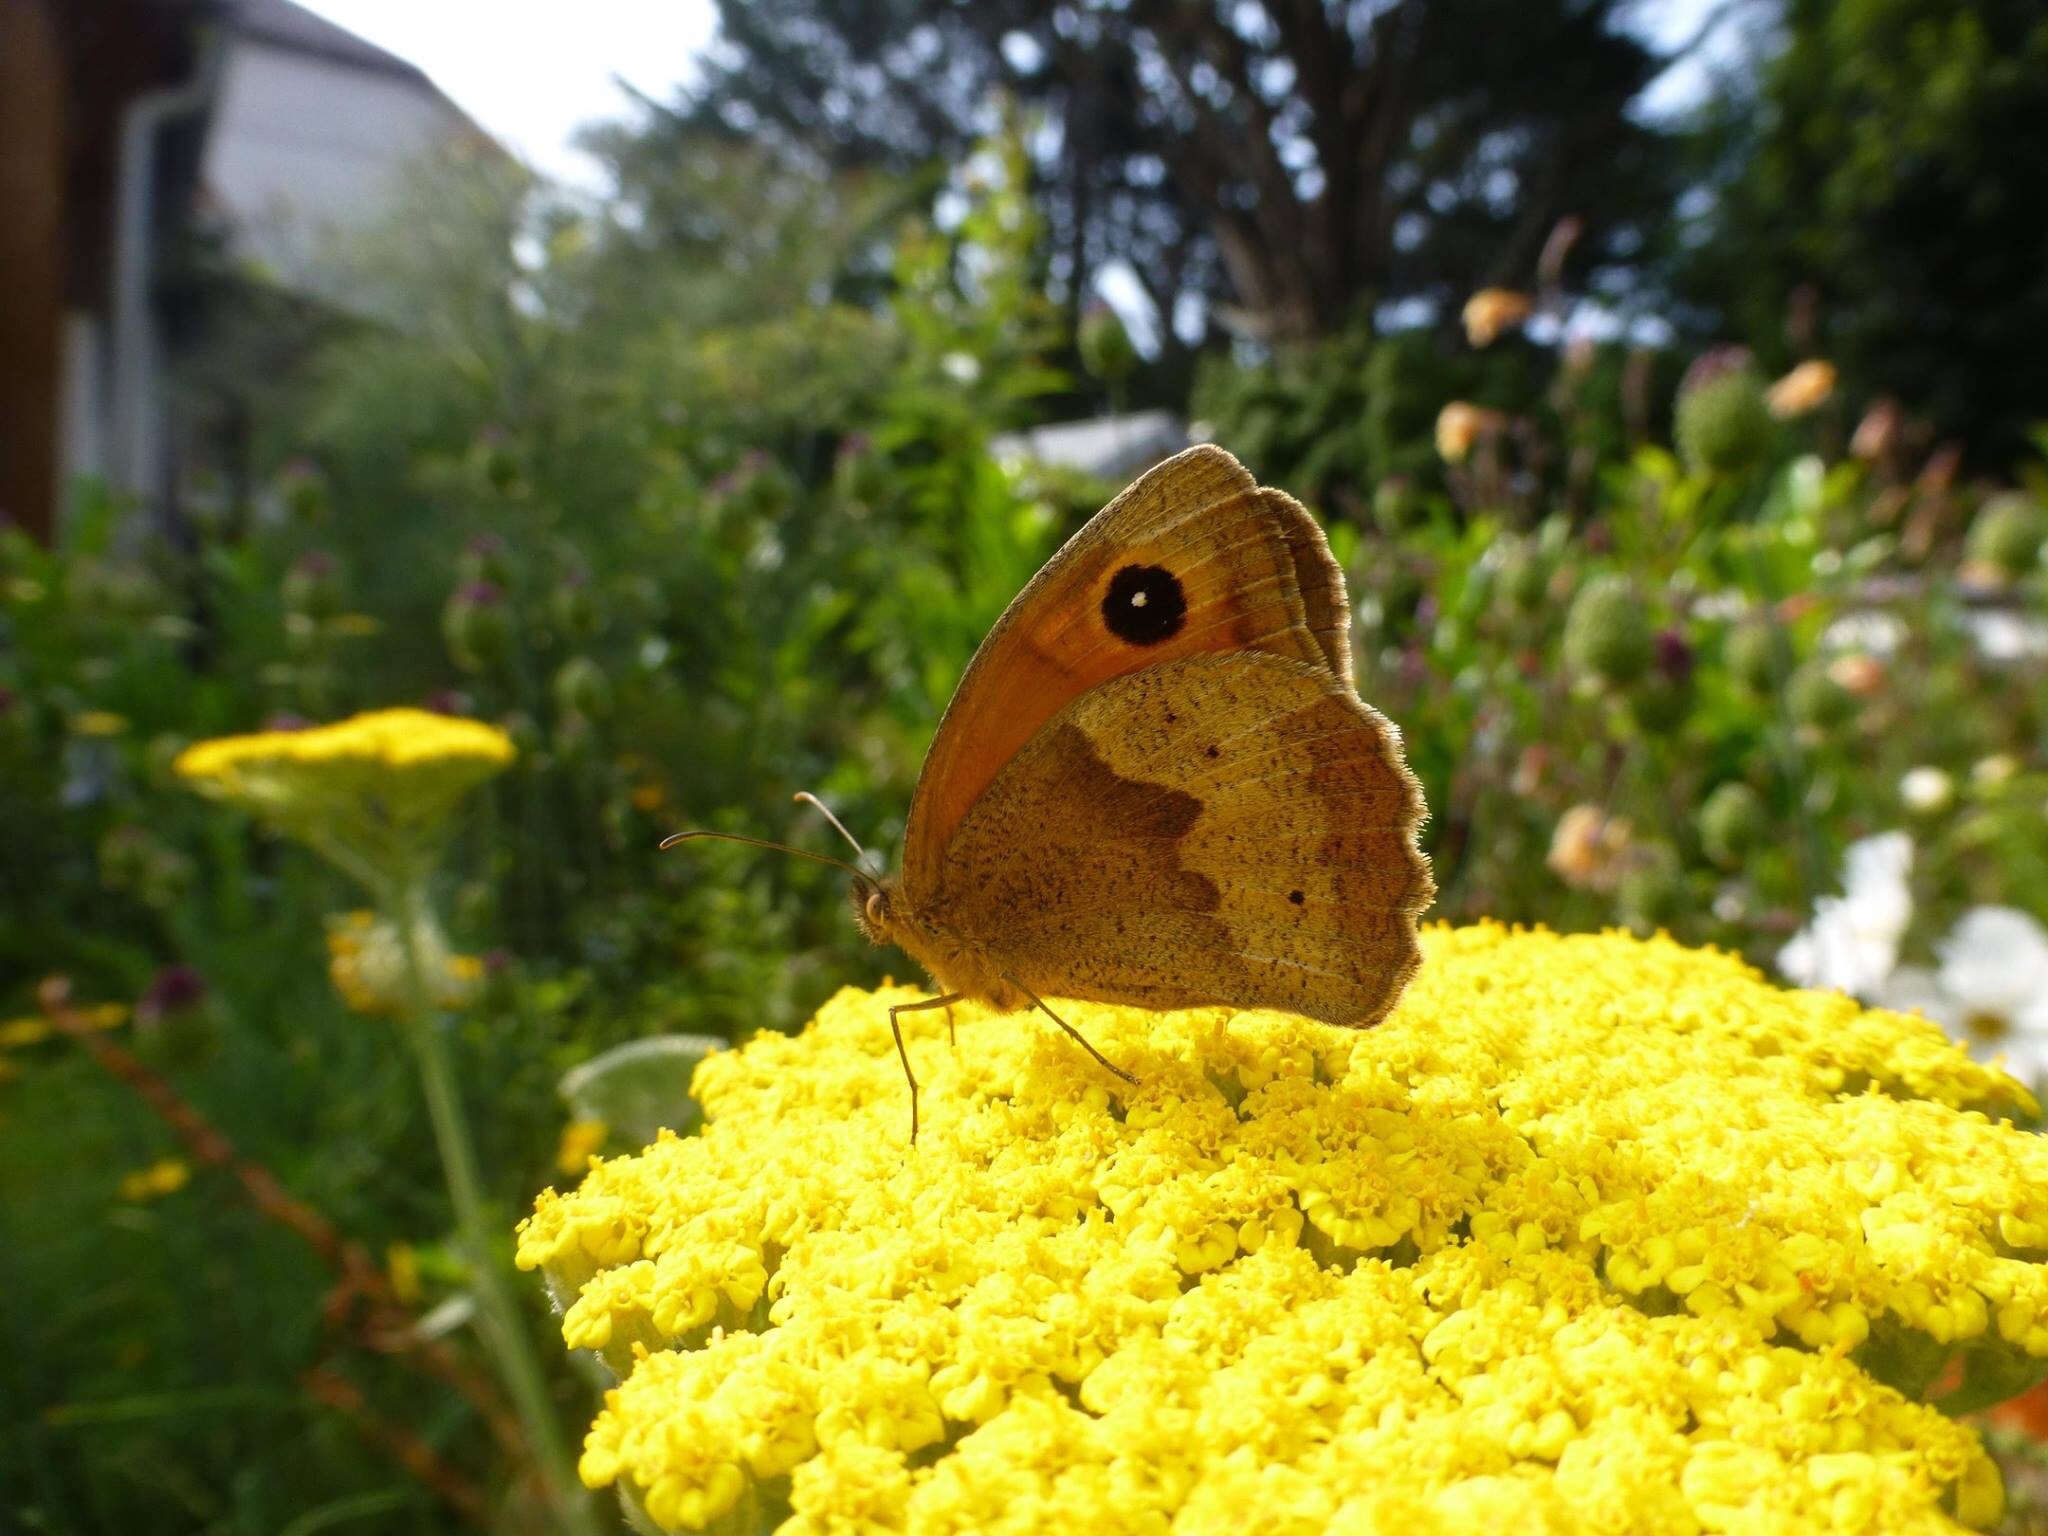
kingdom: Animalia
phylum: Arthropoda
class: Insecta
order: Lepidoptera
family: Nymphalidae
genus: Maniola
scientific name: Maniola jurtina
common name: Meadow brown
